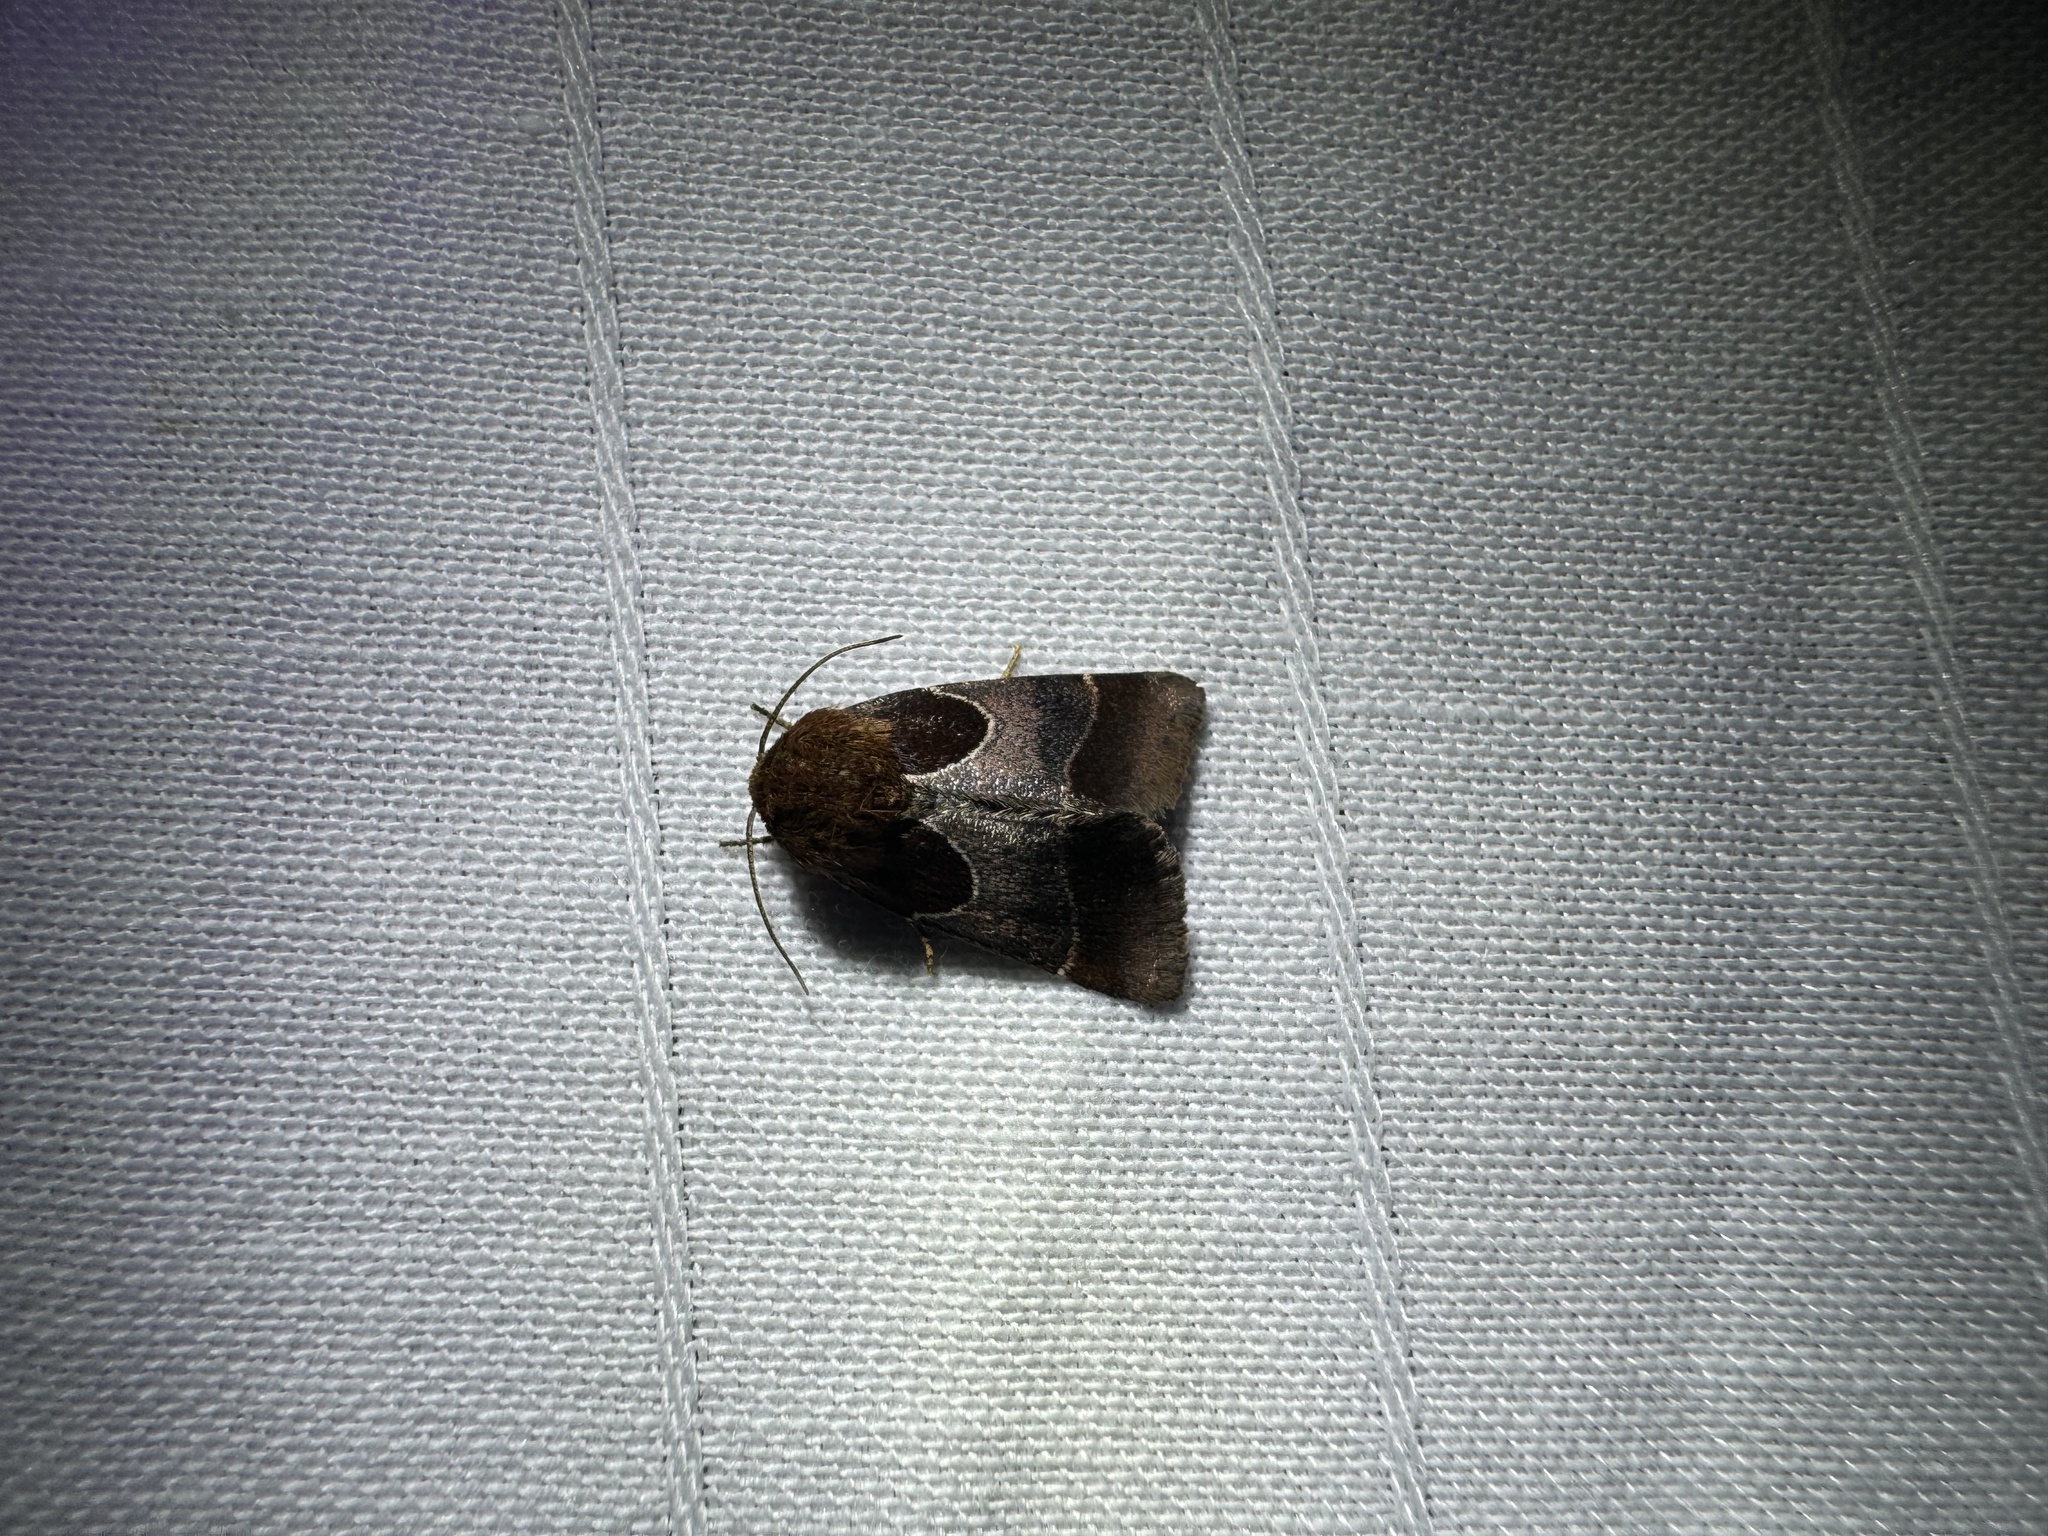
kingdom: Animalia
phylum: Arthropoda
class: Insecta
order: Lepidoptera
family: Noctuidae
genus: Schinia
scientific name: Schinia arcigera
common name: Arcigera flower moth
